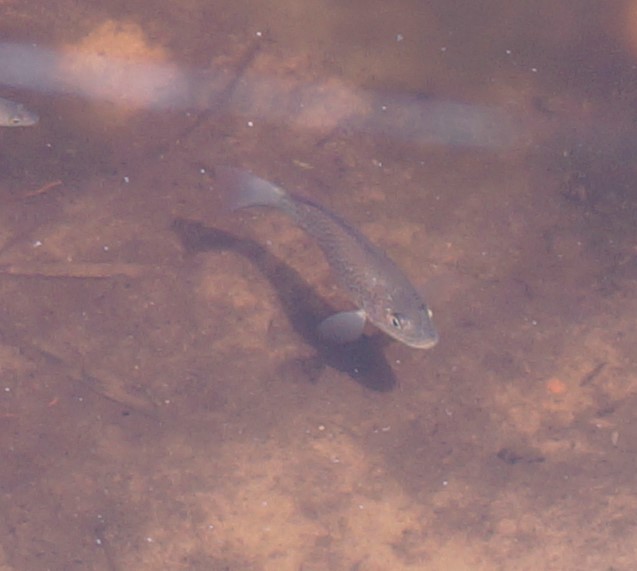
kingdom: Animalia
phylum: Chordata
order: Perciformes
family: Terapontidae
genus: Leiopotherapon
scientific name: Leiopotherapon unicolor
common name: Bobby
